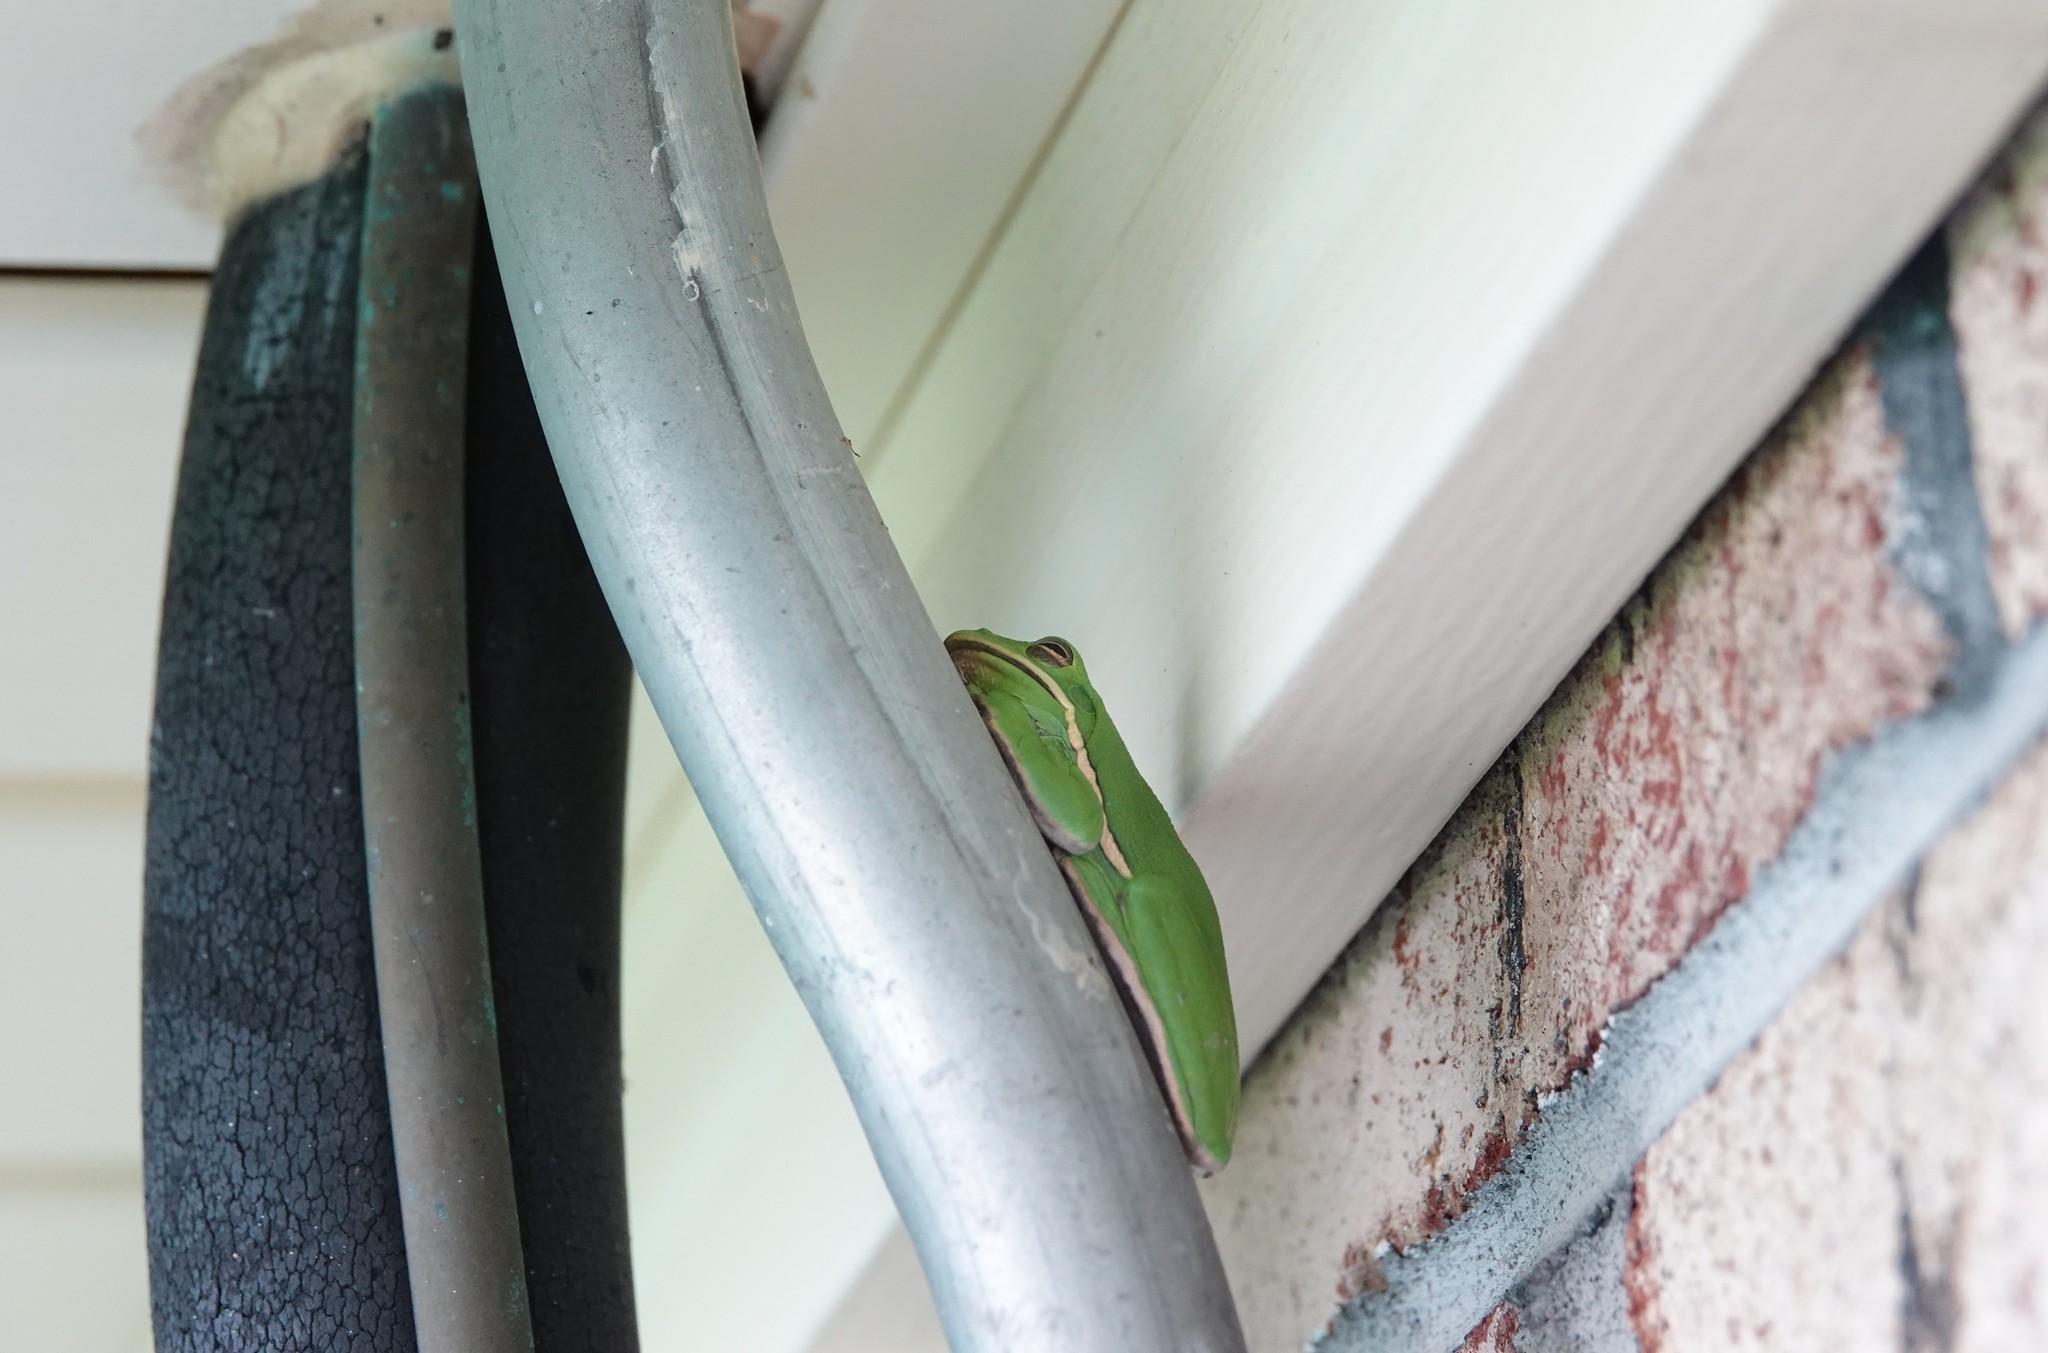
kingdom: Animalia
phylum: Chordata
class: Amphibia
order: Anura
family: Hylidae
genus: Dryophytes
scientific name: Dryophytes cinereus
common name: Green treefrog
